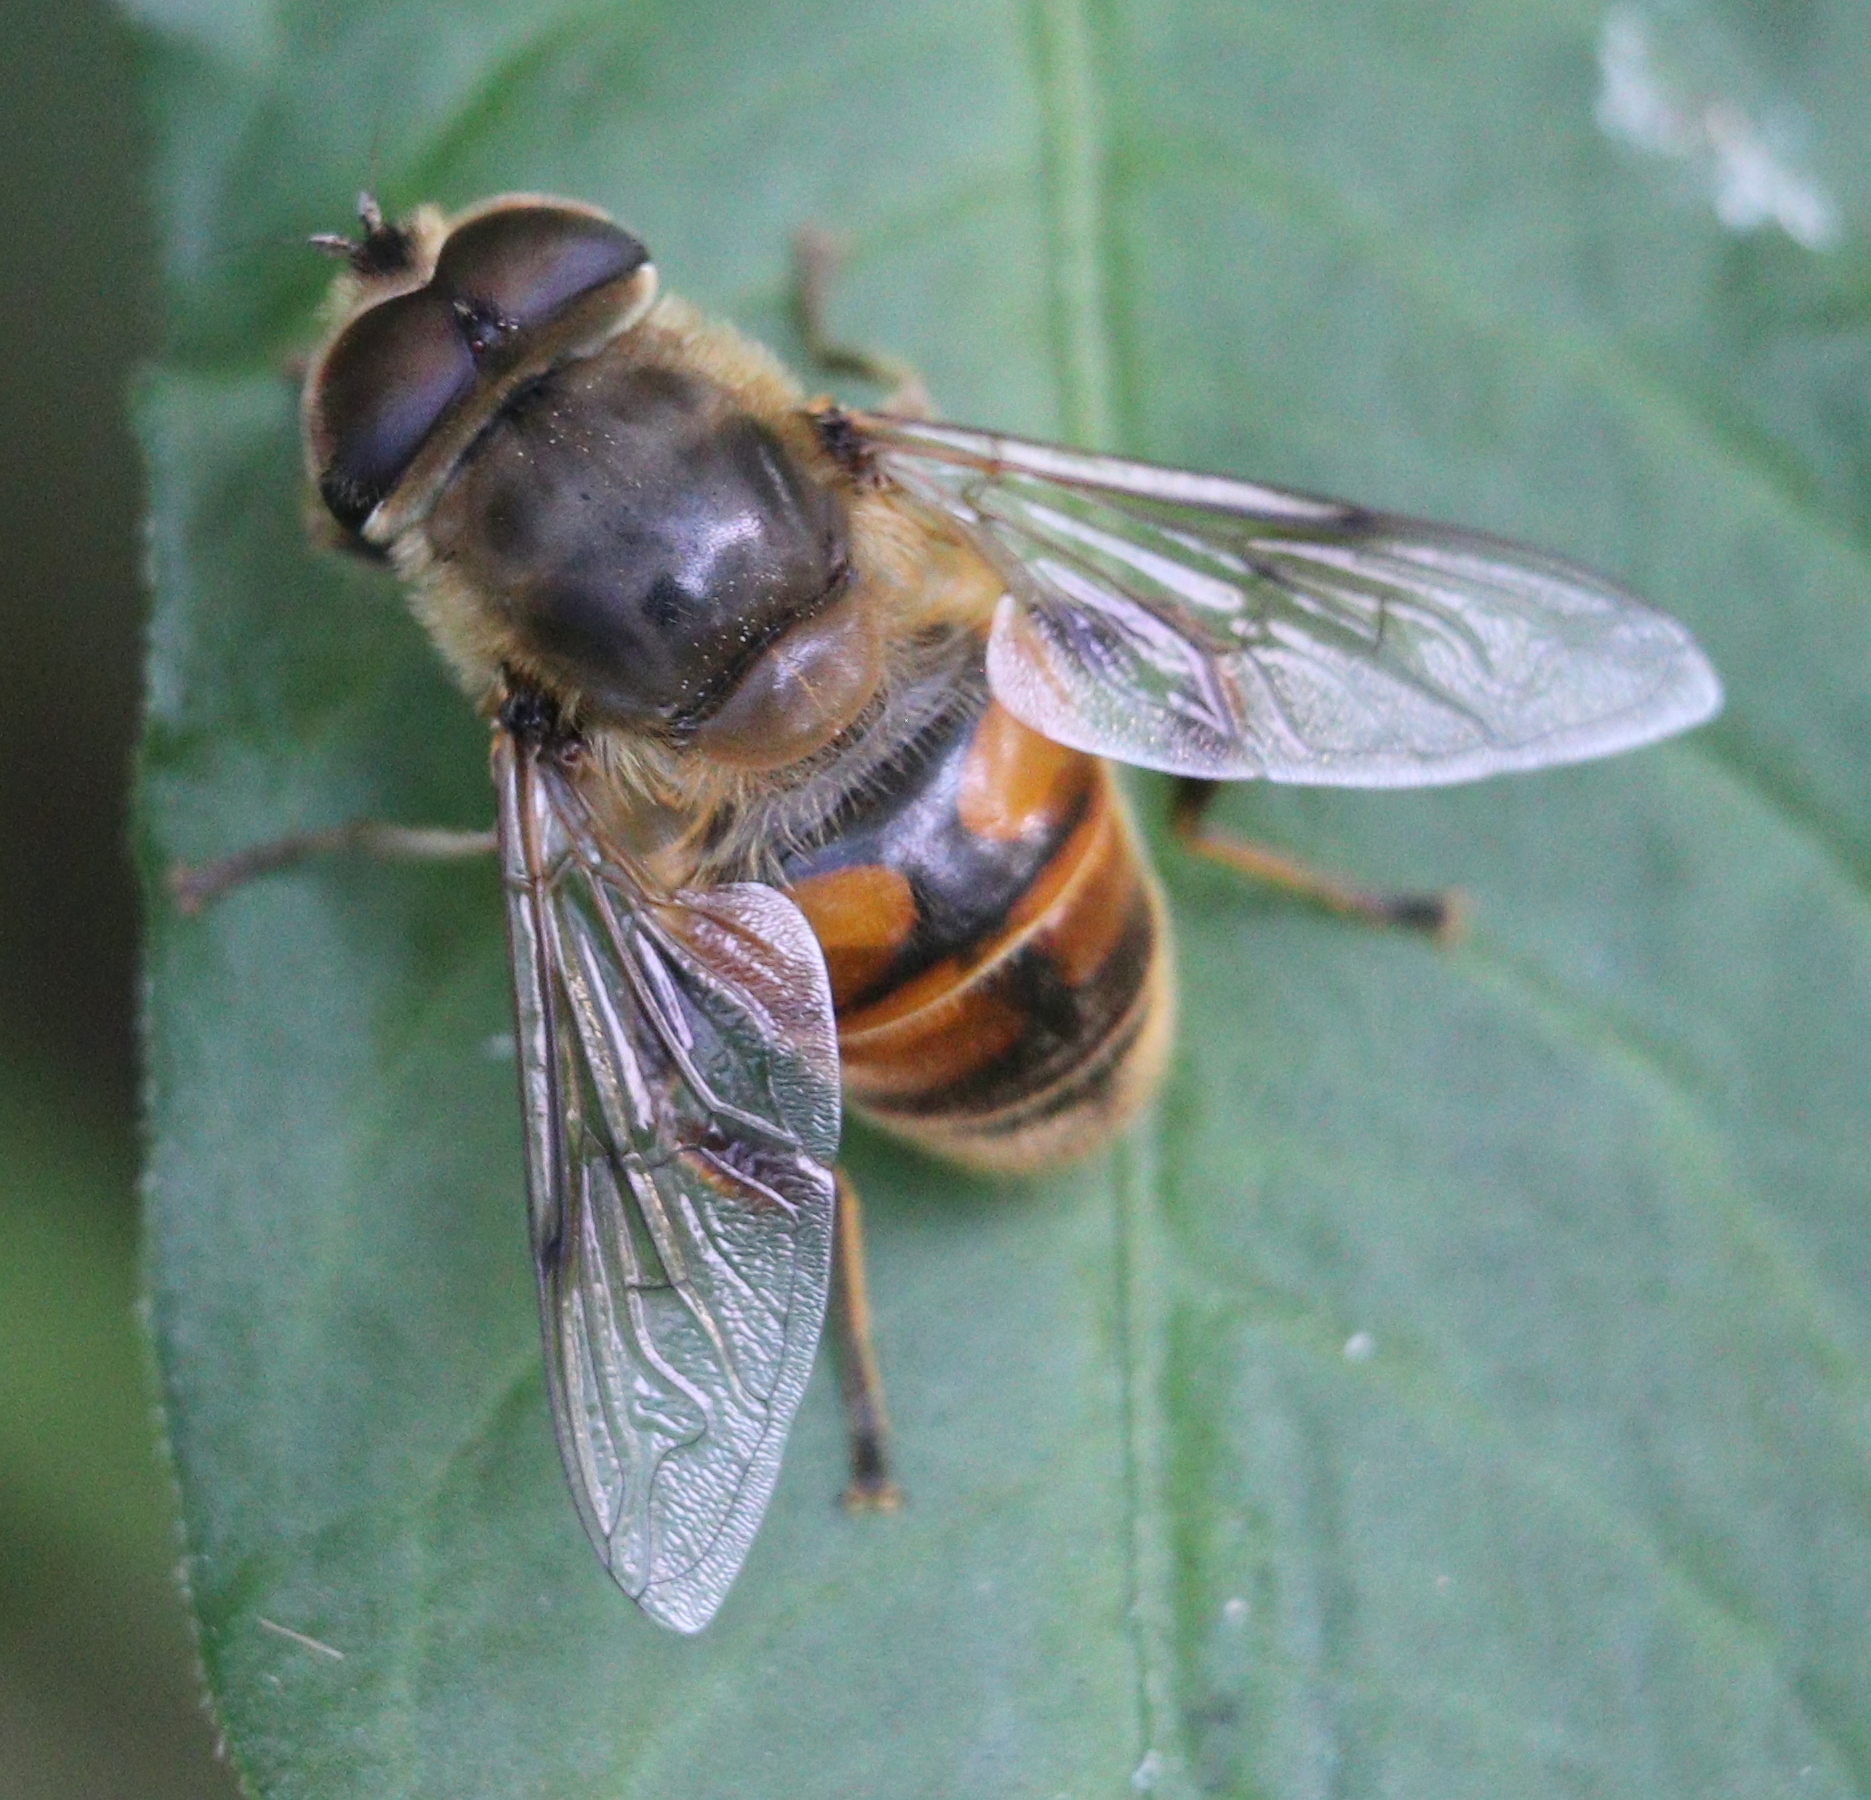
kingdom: Animalia
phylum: Arthropoda
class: Insecta
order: Diptera
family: Syrphidae
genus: Eristalis
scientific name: Eristalis tenax
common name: Drone fly
